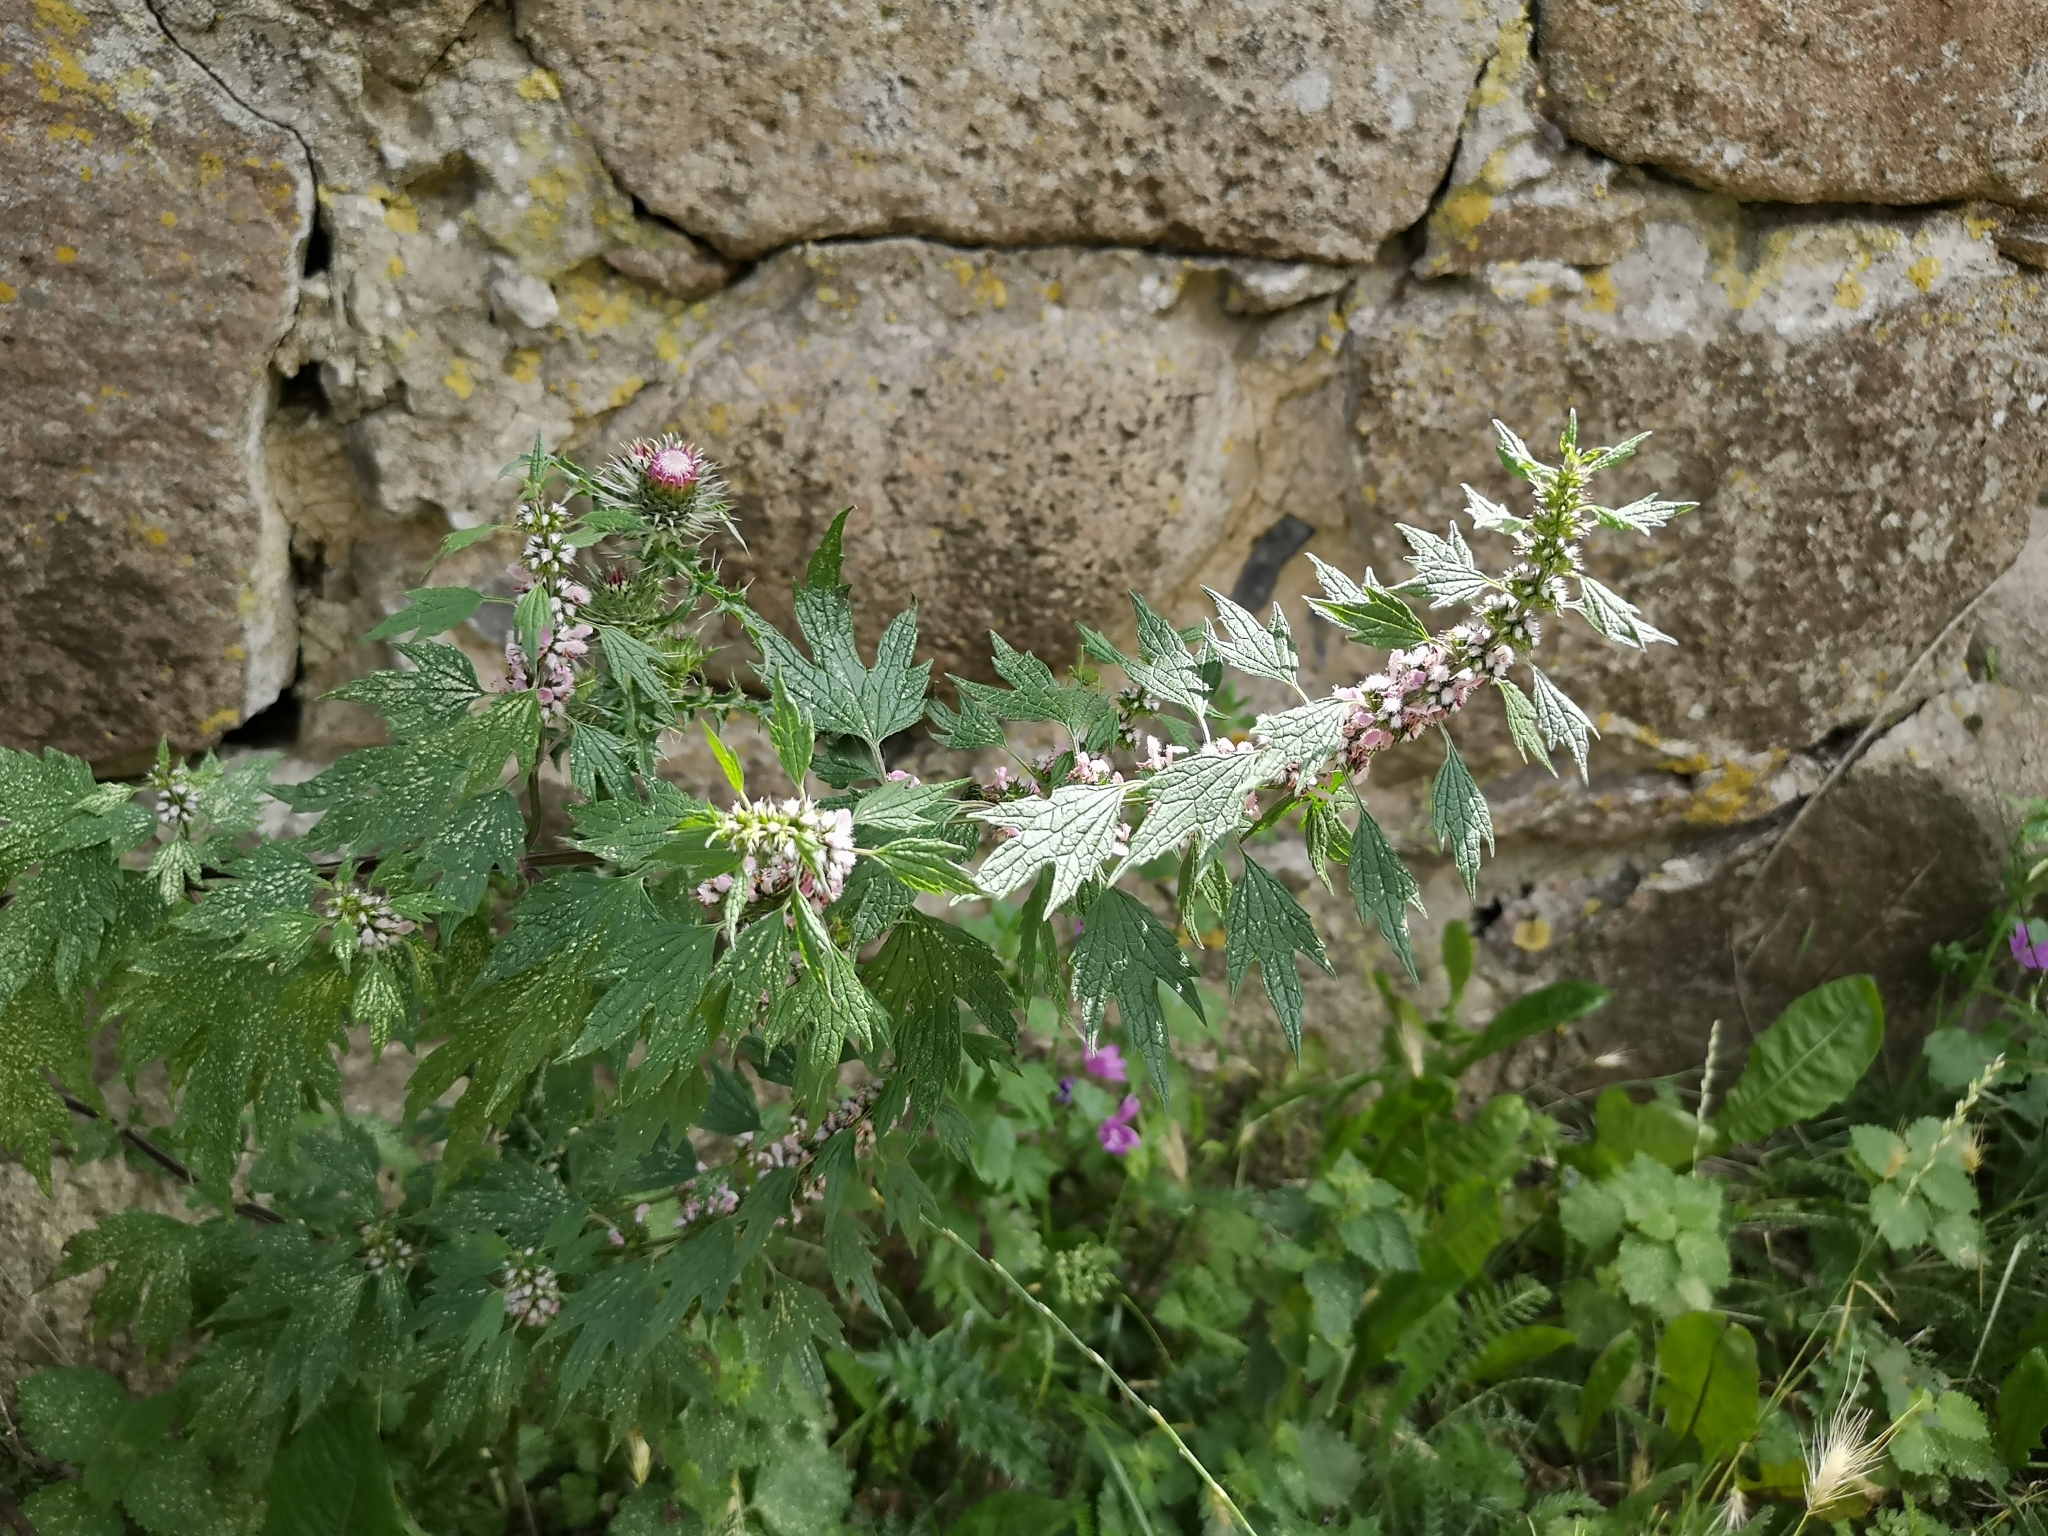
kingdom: Plantae
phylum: Tracheophyta
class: Magnoliopsida
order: Lamiales
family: Lamiaceae
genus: Leonurus
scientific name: Leonurus cardiaca
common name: Motherwort
